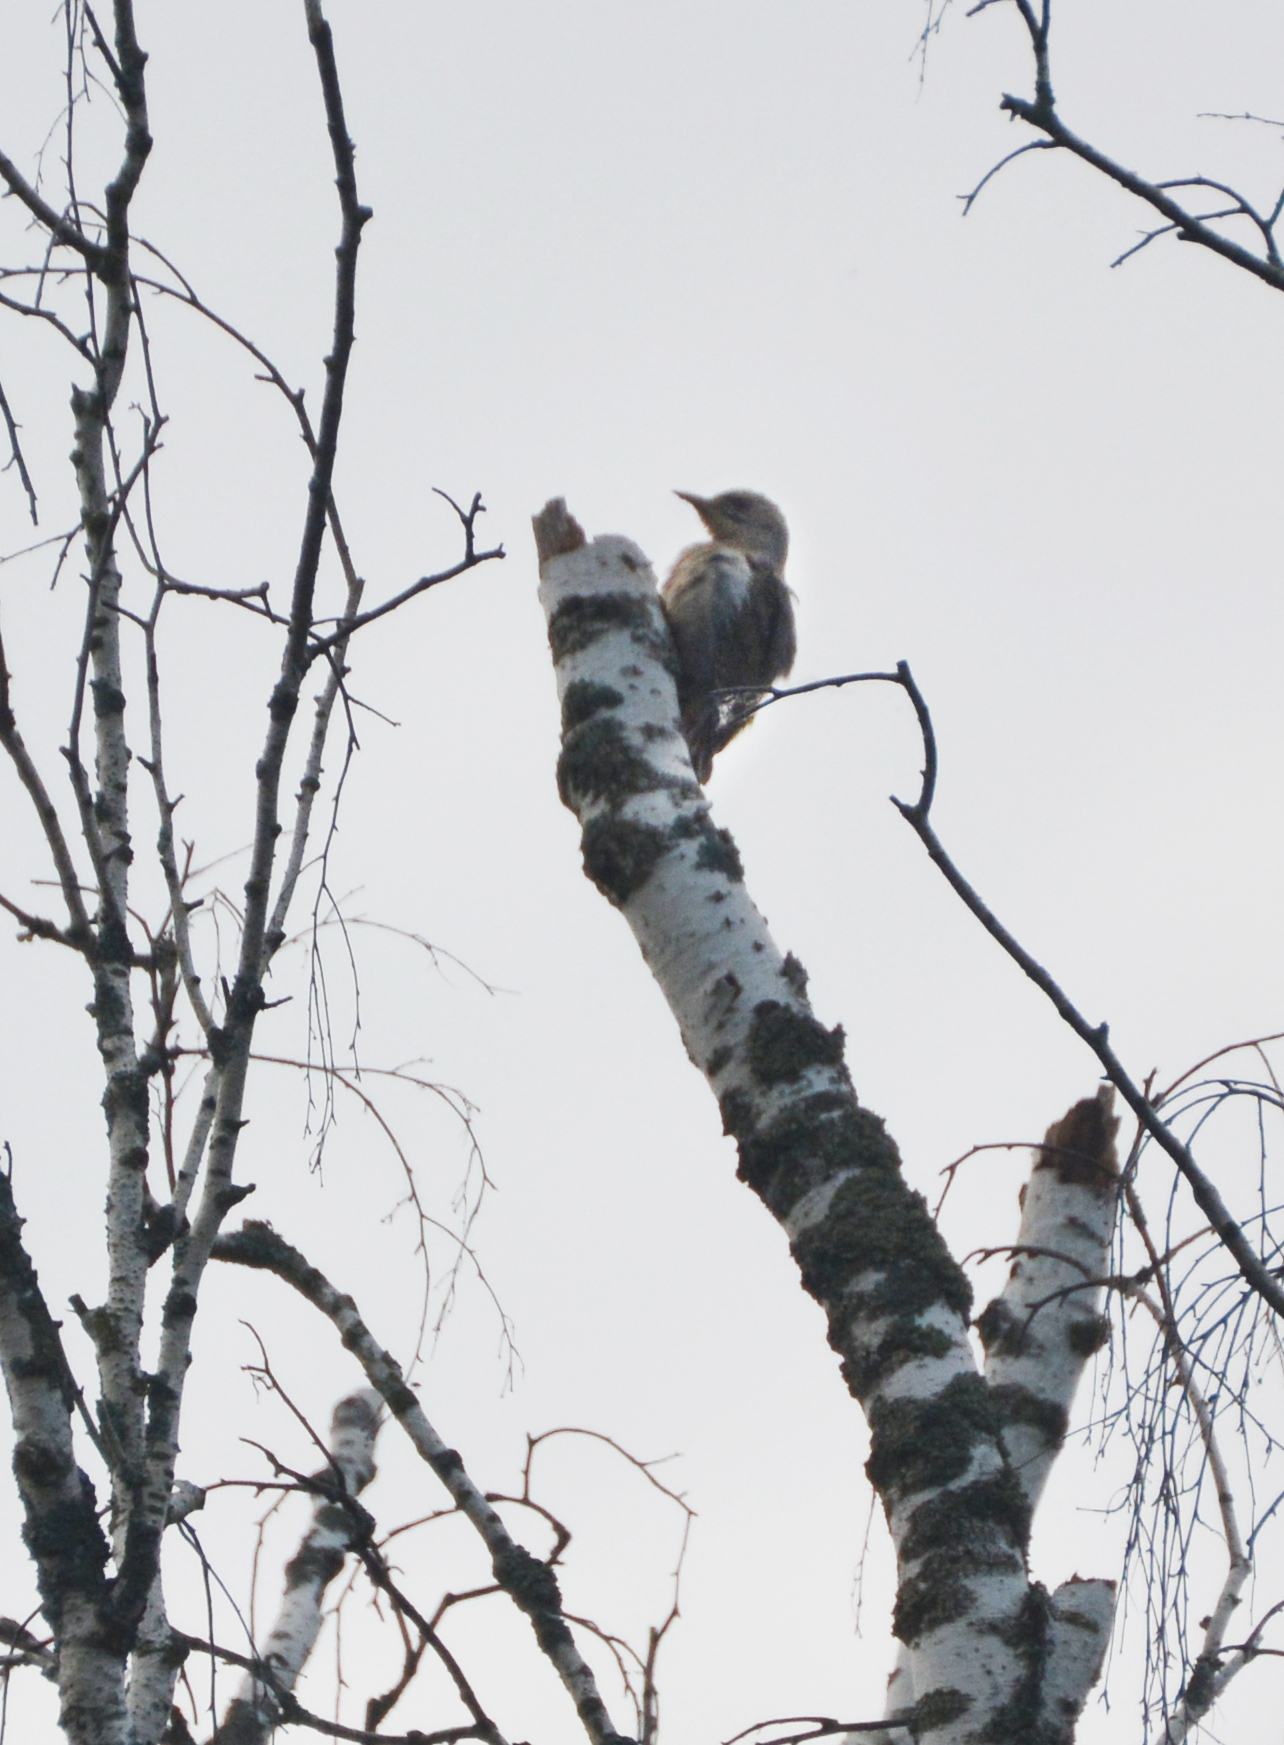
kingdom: Animalia
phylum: Chordata
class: Aves
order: Piciformes
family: Picidae
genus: Picus
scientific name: Picus canus
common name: Grey-headed woodpecker
